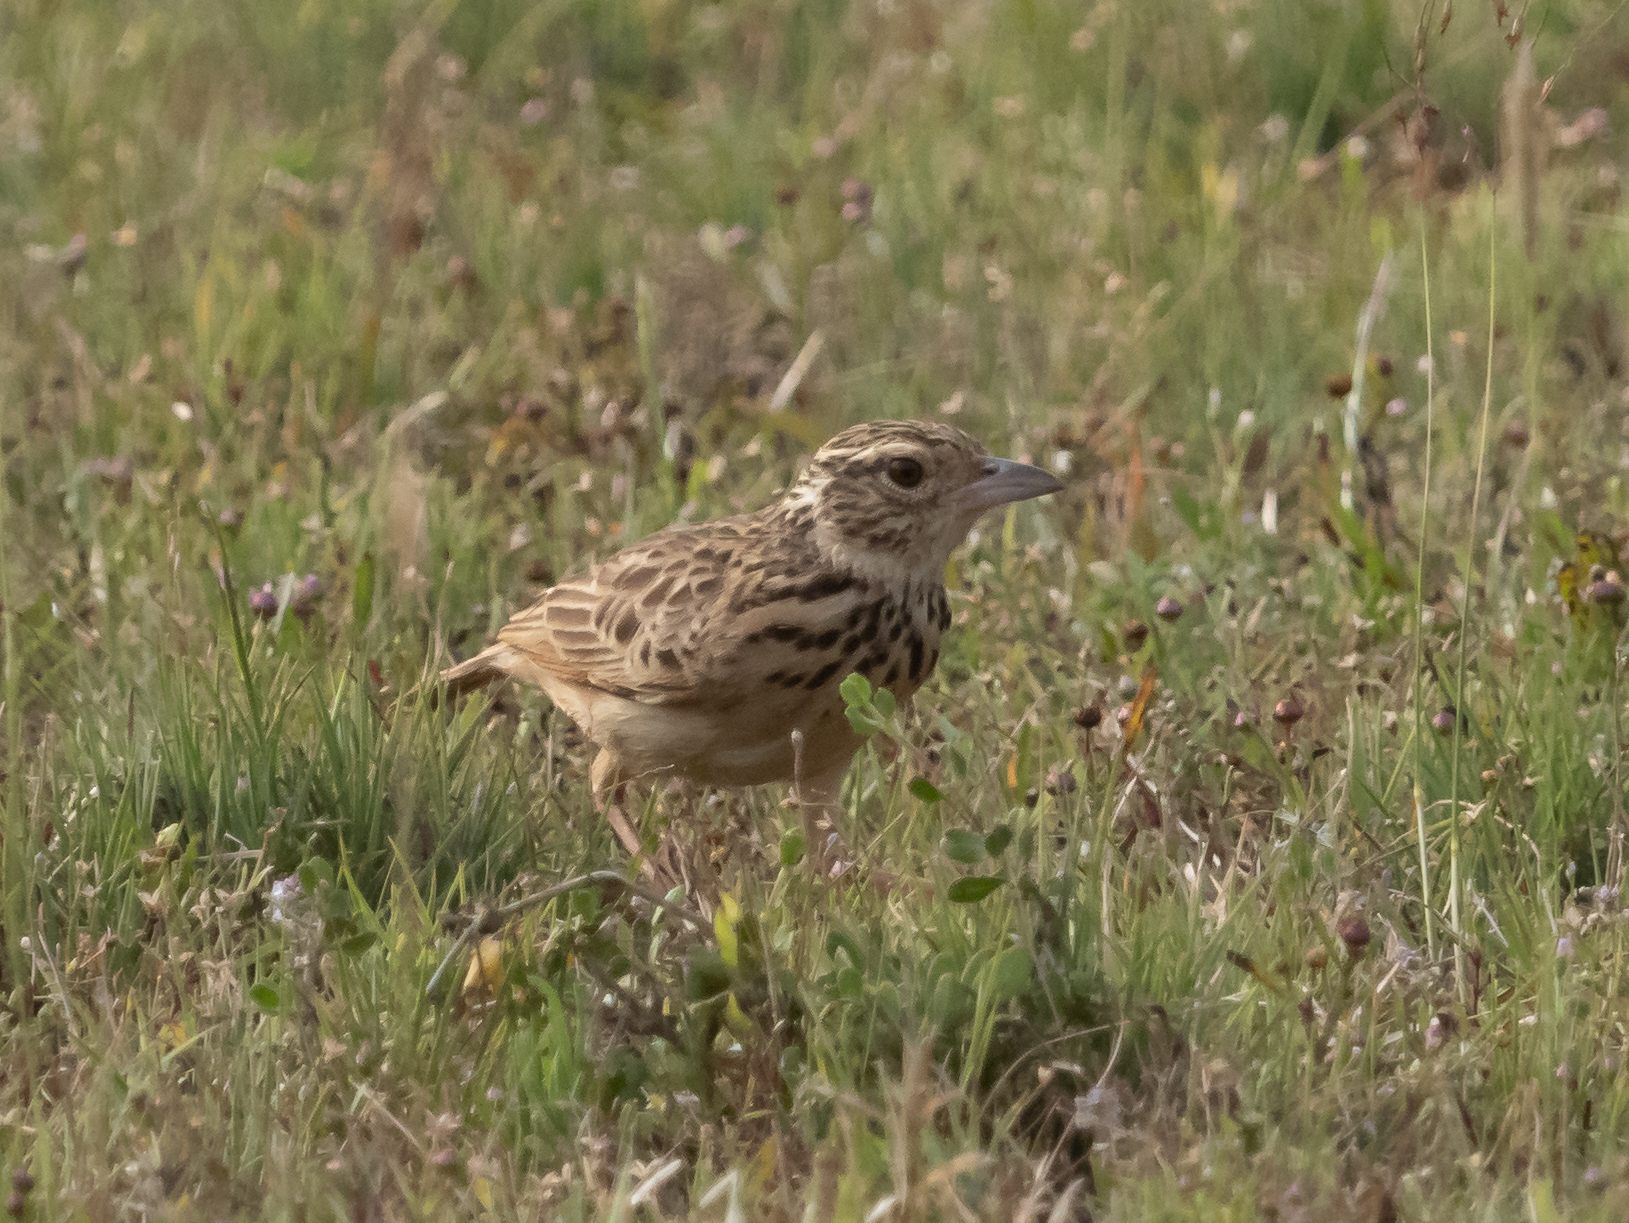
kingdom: Animalia
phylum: Chordata
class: Aves
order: Passeriformes
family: Alaudidae
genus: Mirafra
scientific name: Mirafra affinis
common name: Jerdon's bushlark
